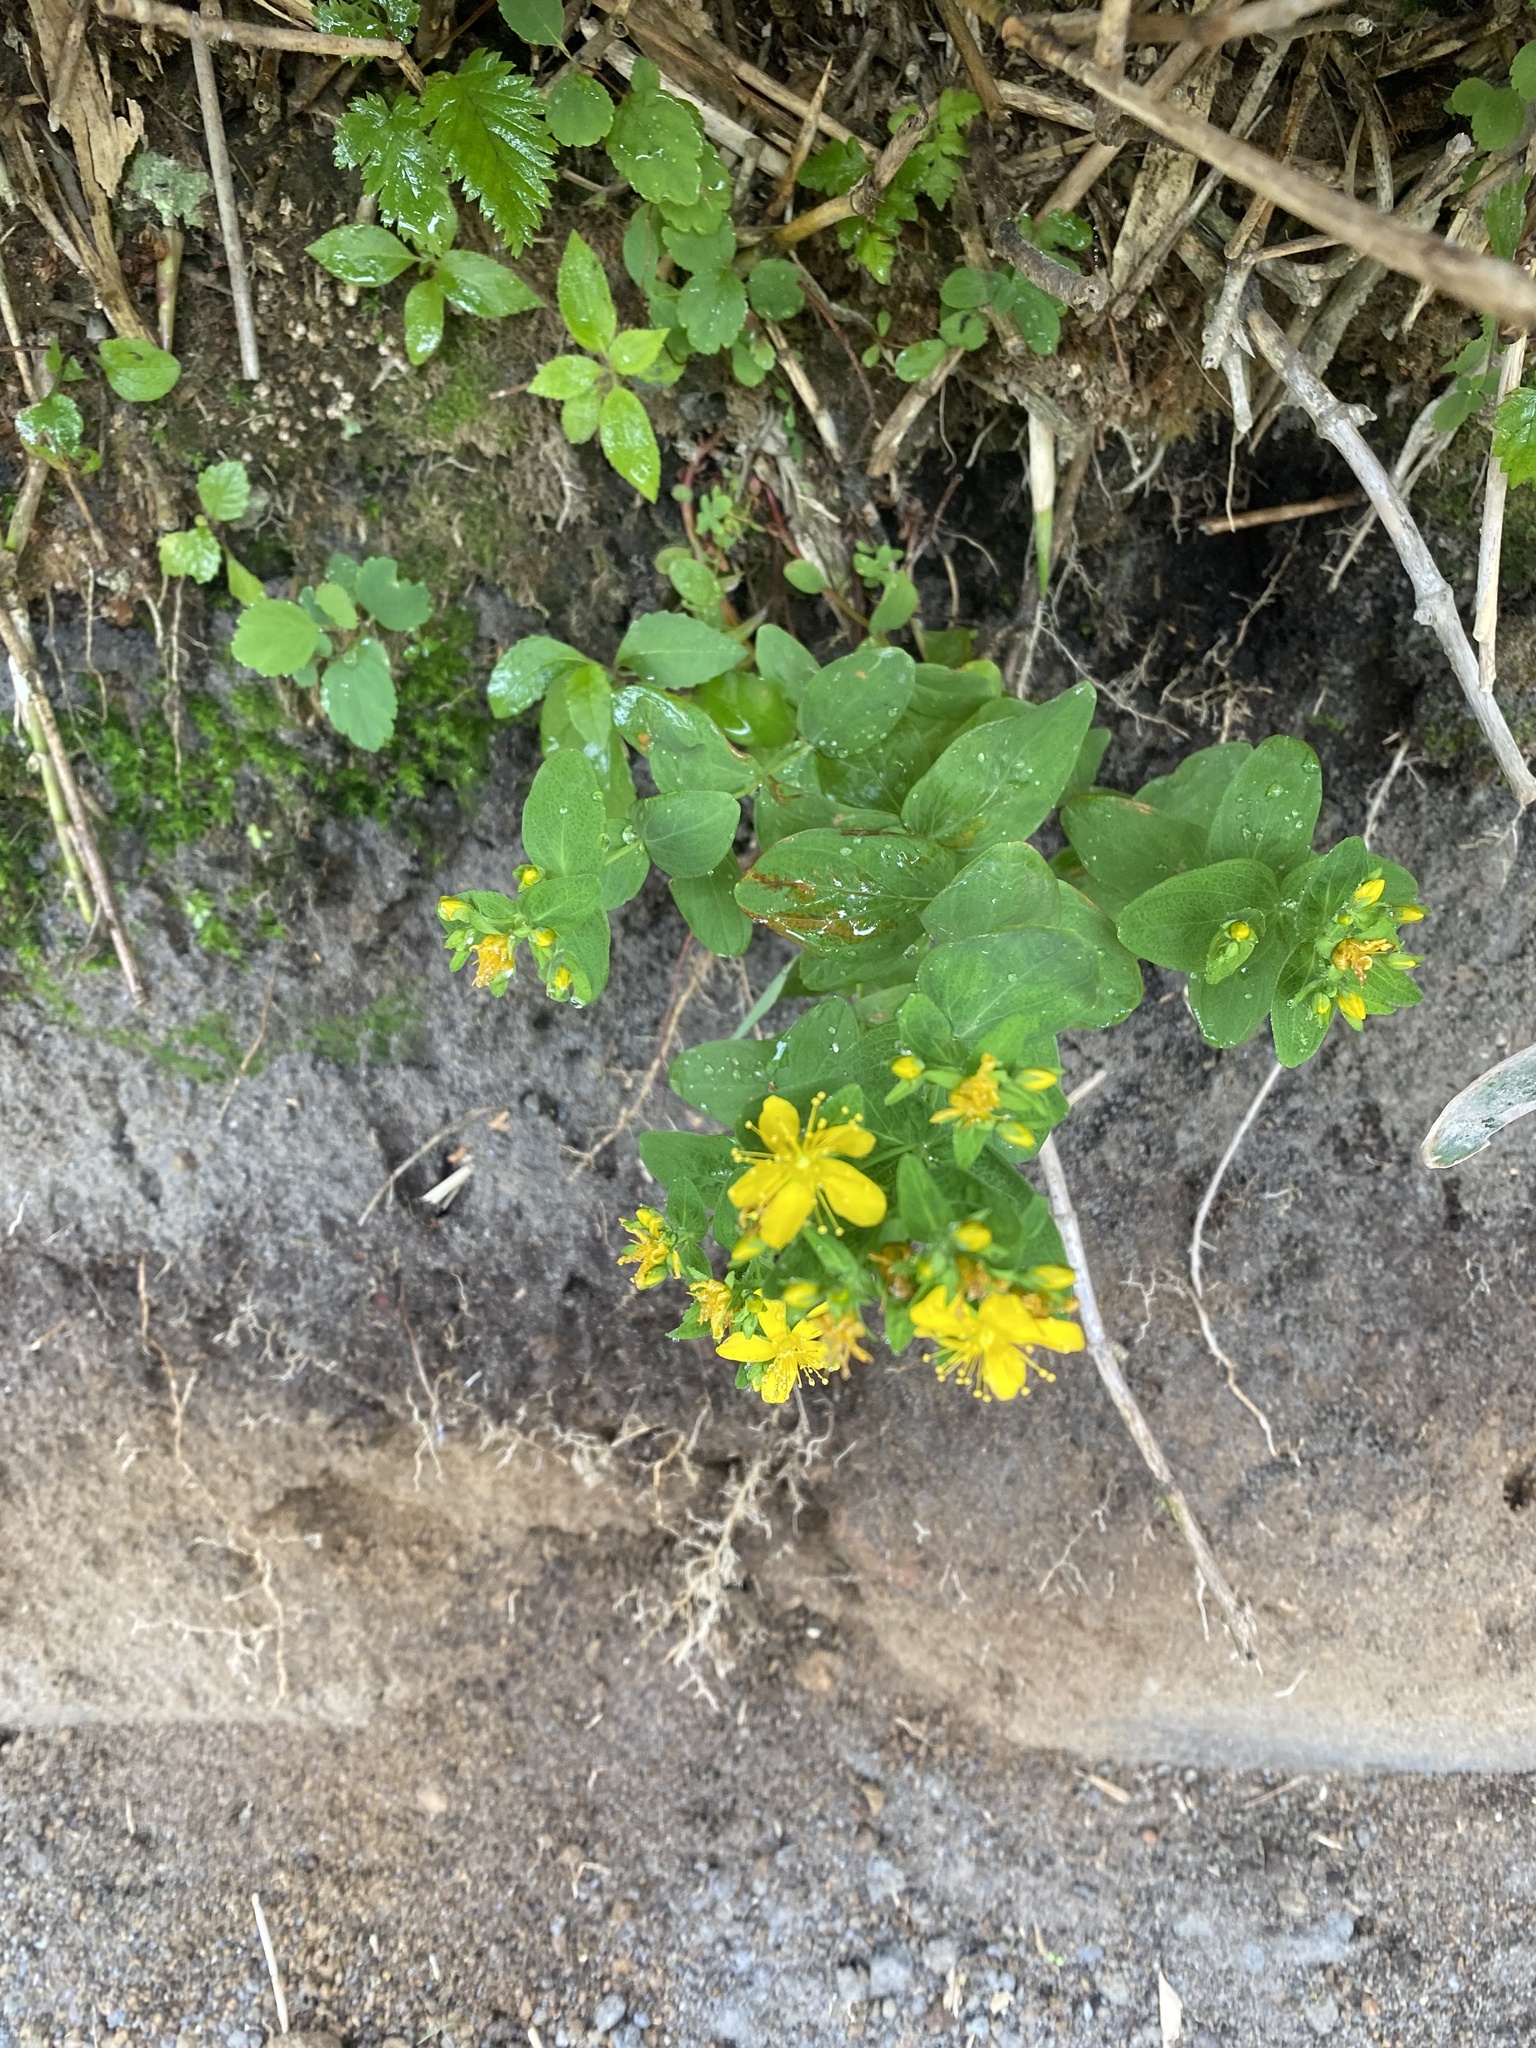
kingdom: Plantae
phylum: Tracheophyta
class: Magnoliopsida
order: Malpighiales
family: Hypericaceae
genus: Hypericum
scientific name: Hypericum kamtschaticum
